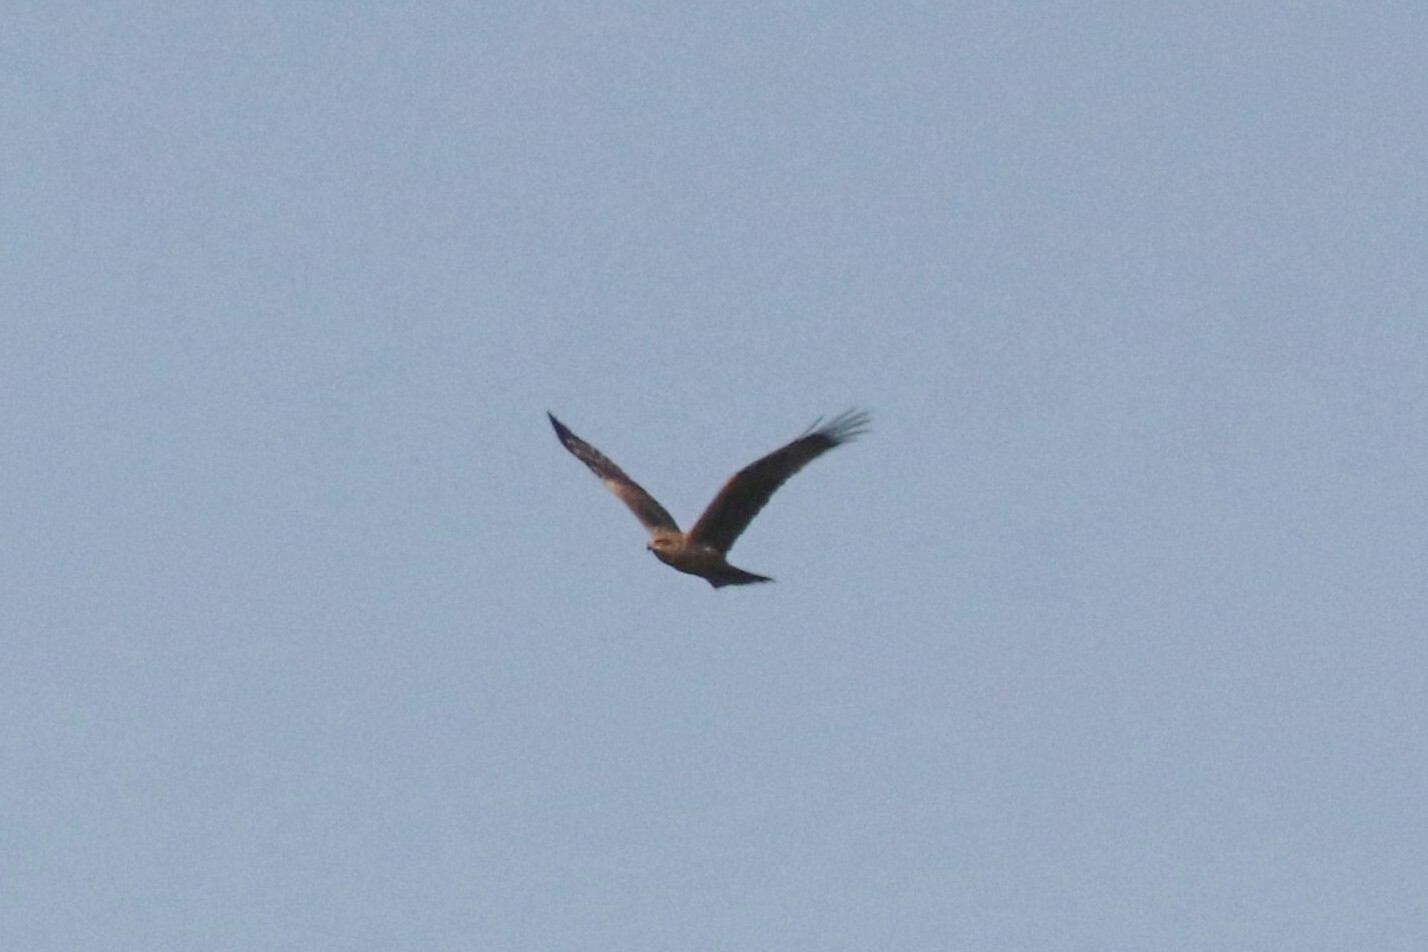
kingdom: Animalia
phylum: Chordata
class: Aves
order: Accipitriformes
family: Accipitridae
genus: Milvus
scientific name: Milvus migrans
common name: Black kite
